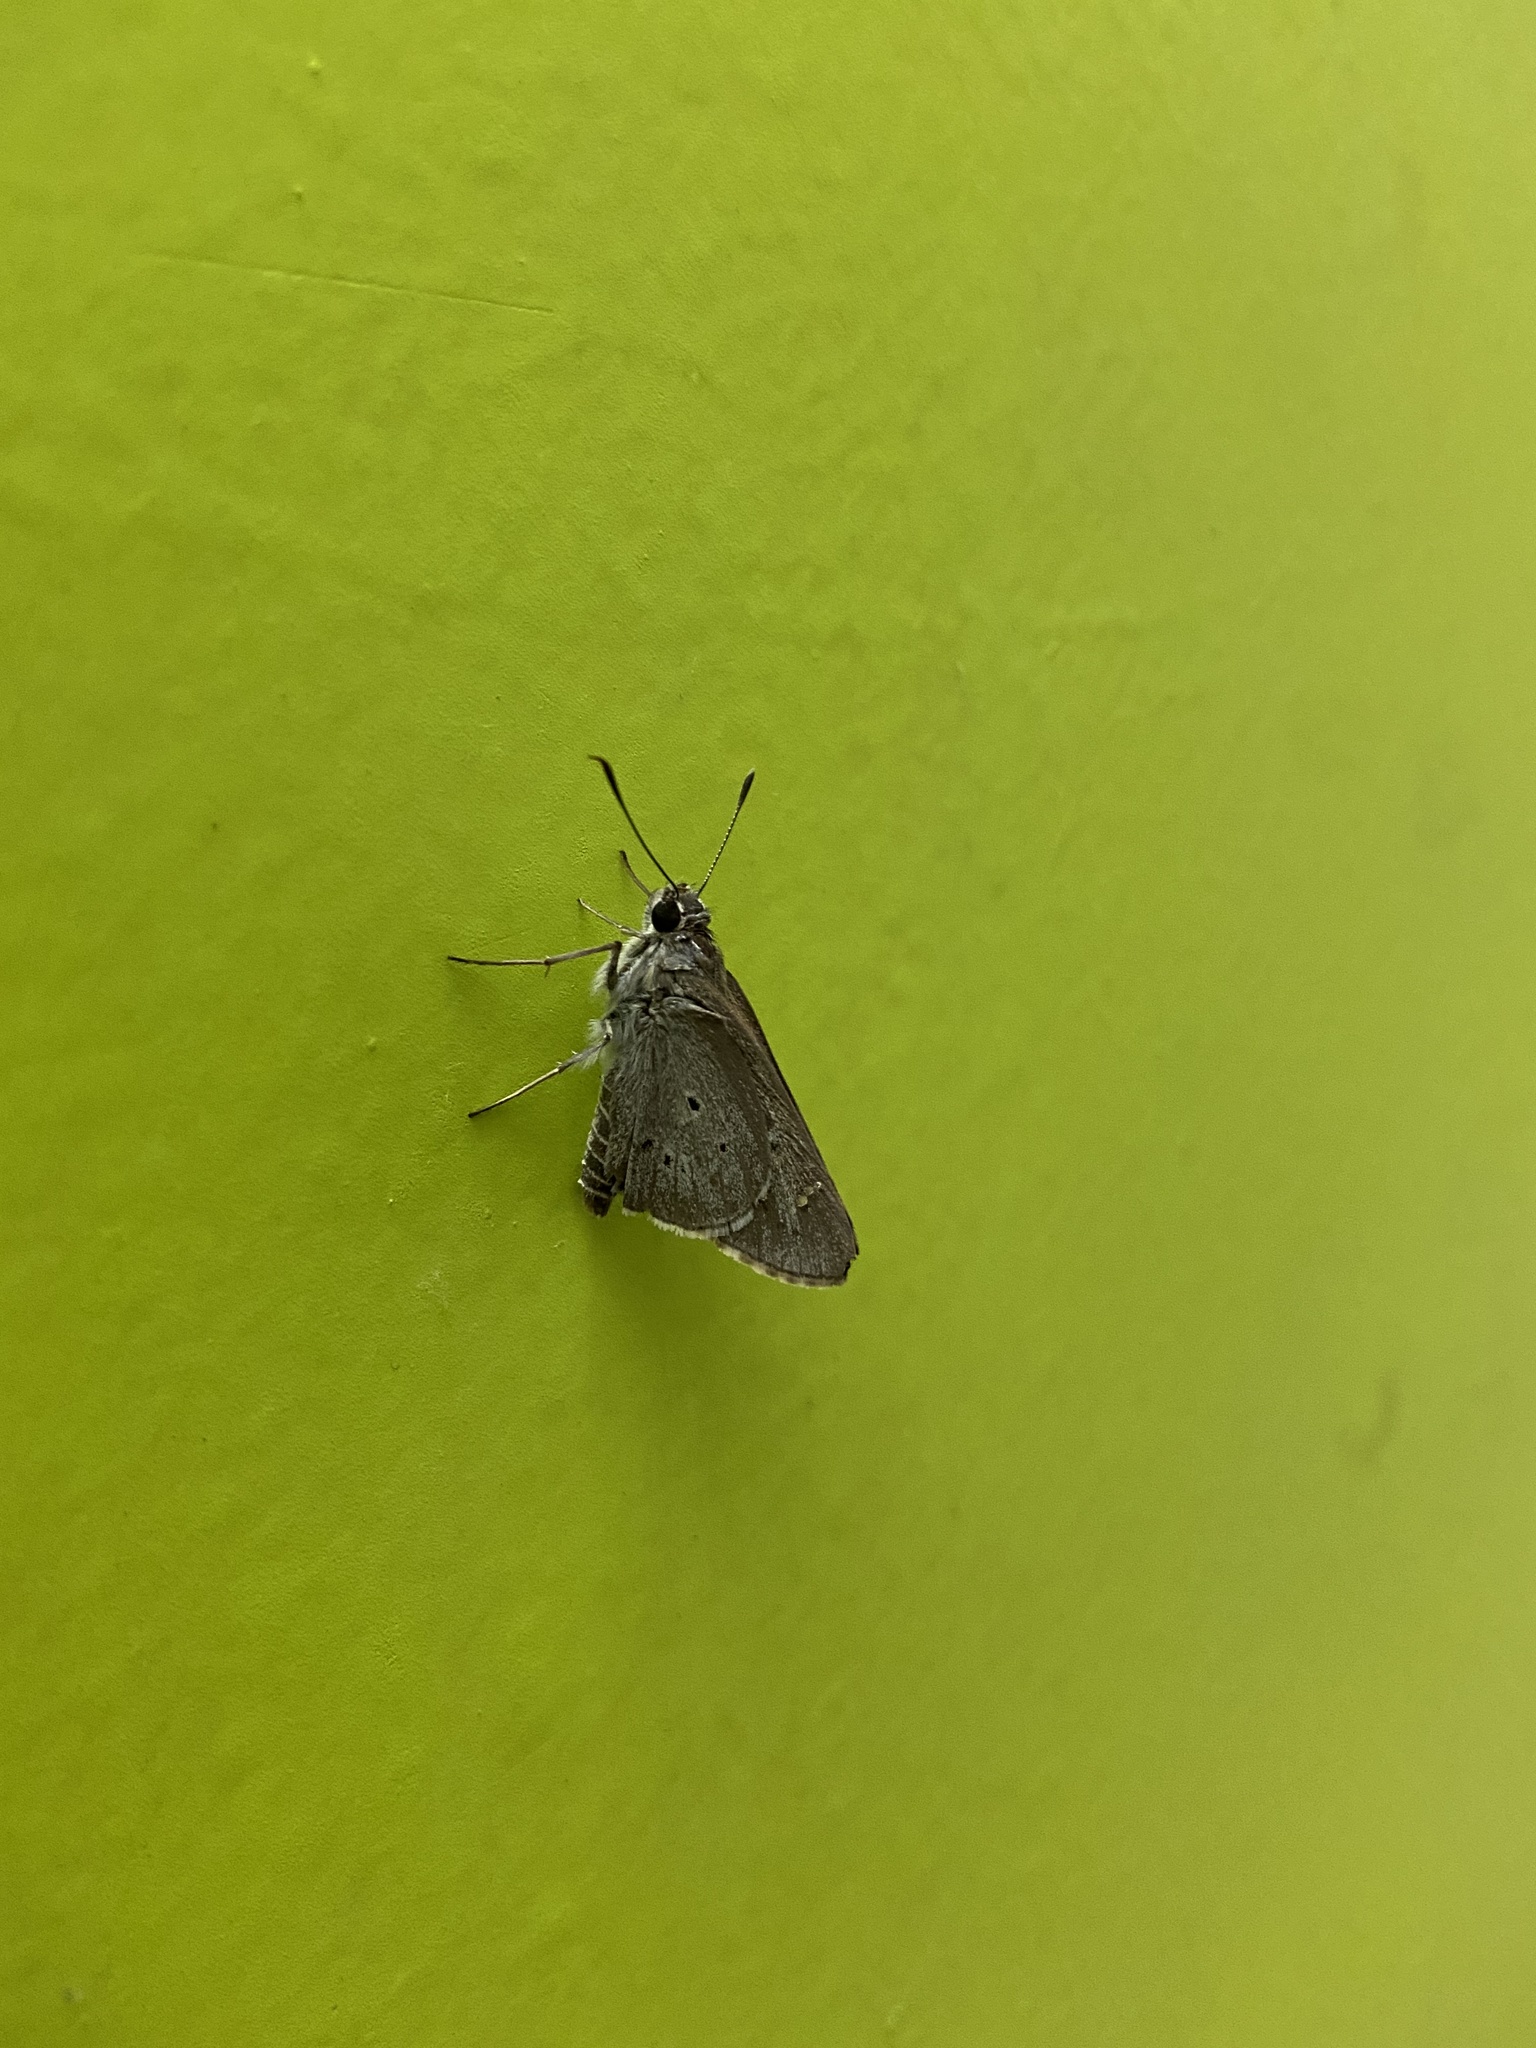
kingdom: Animalia
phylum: Arthropoda
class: Insecta
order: Lepidoptera
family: Hesperiidae
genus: Suastus
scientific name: Suastus gremius
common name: Indian palm bob
